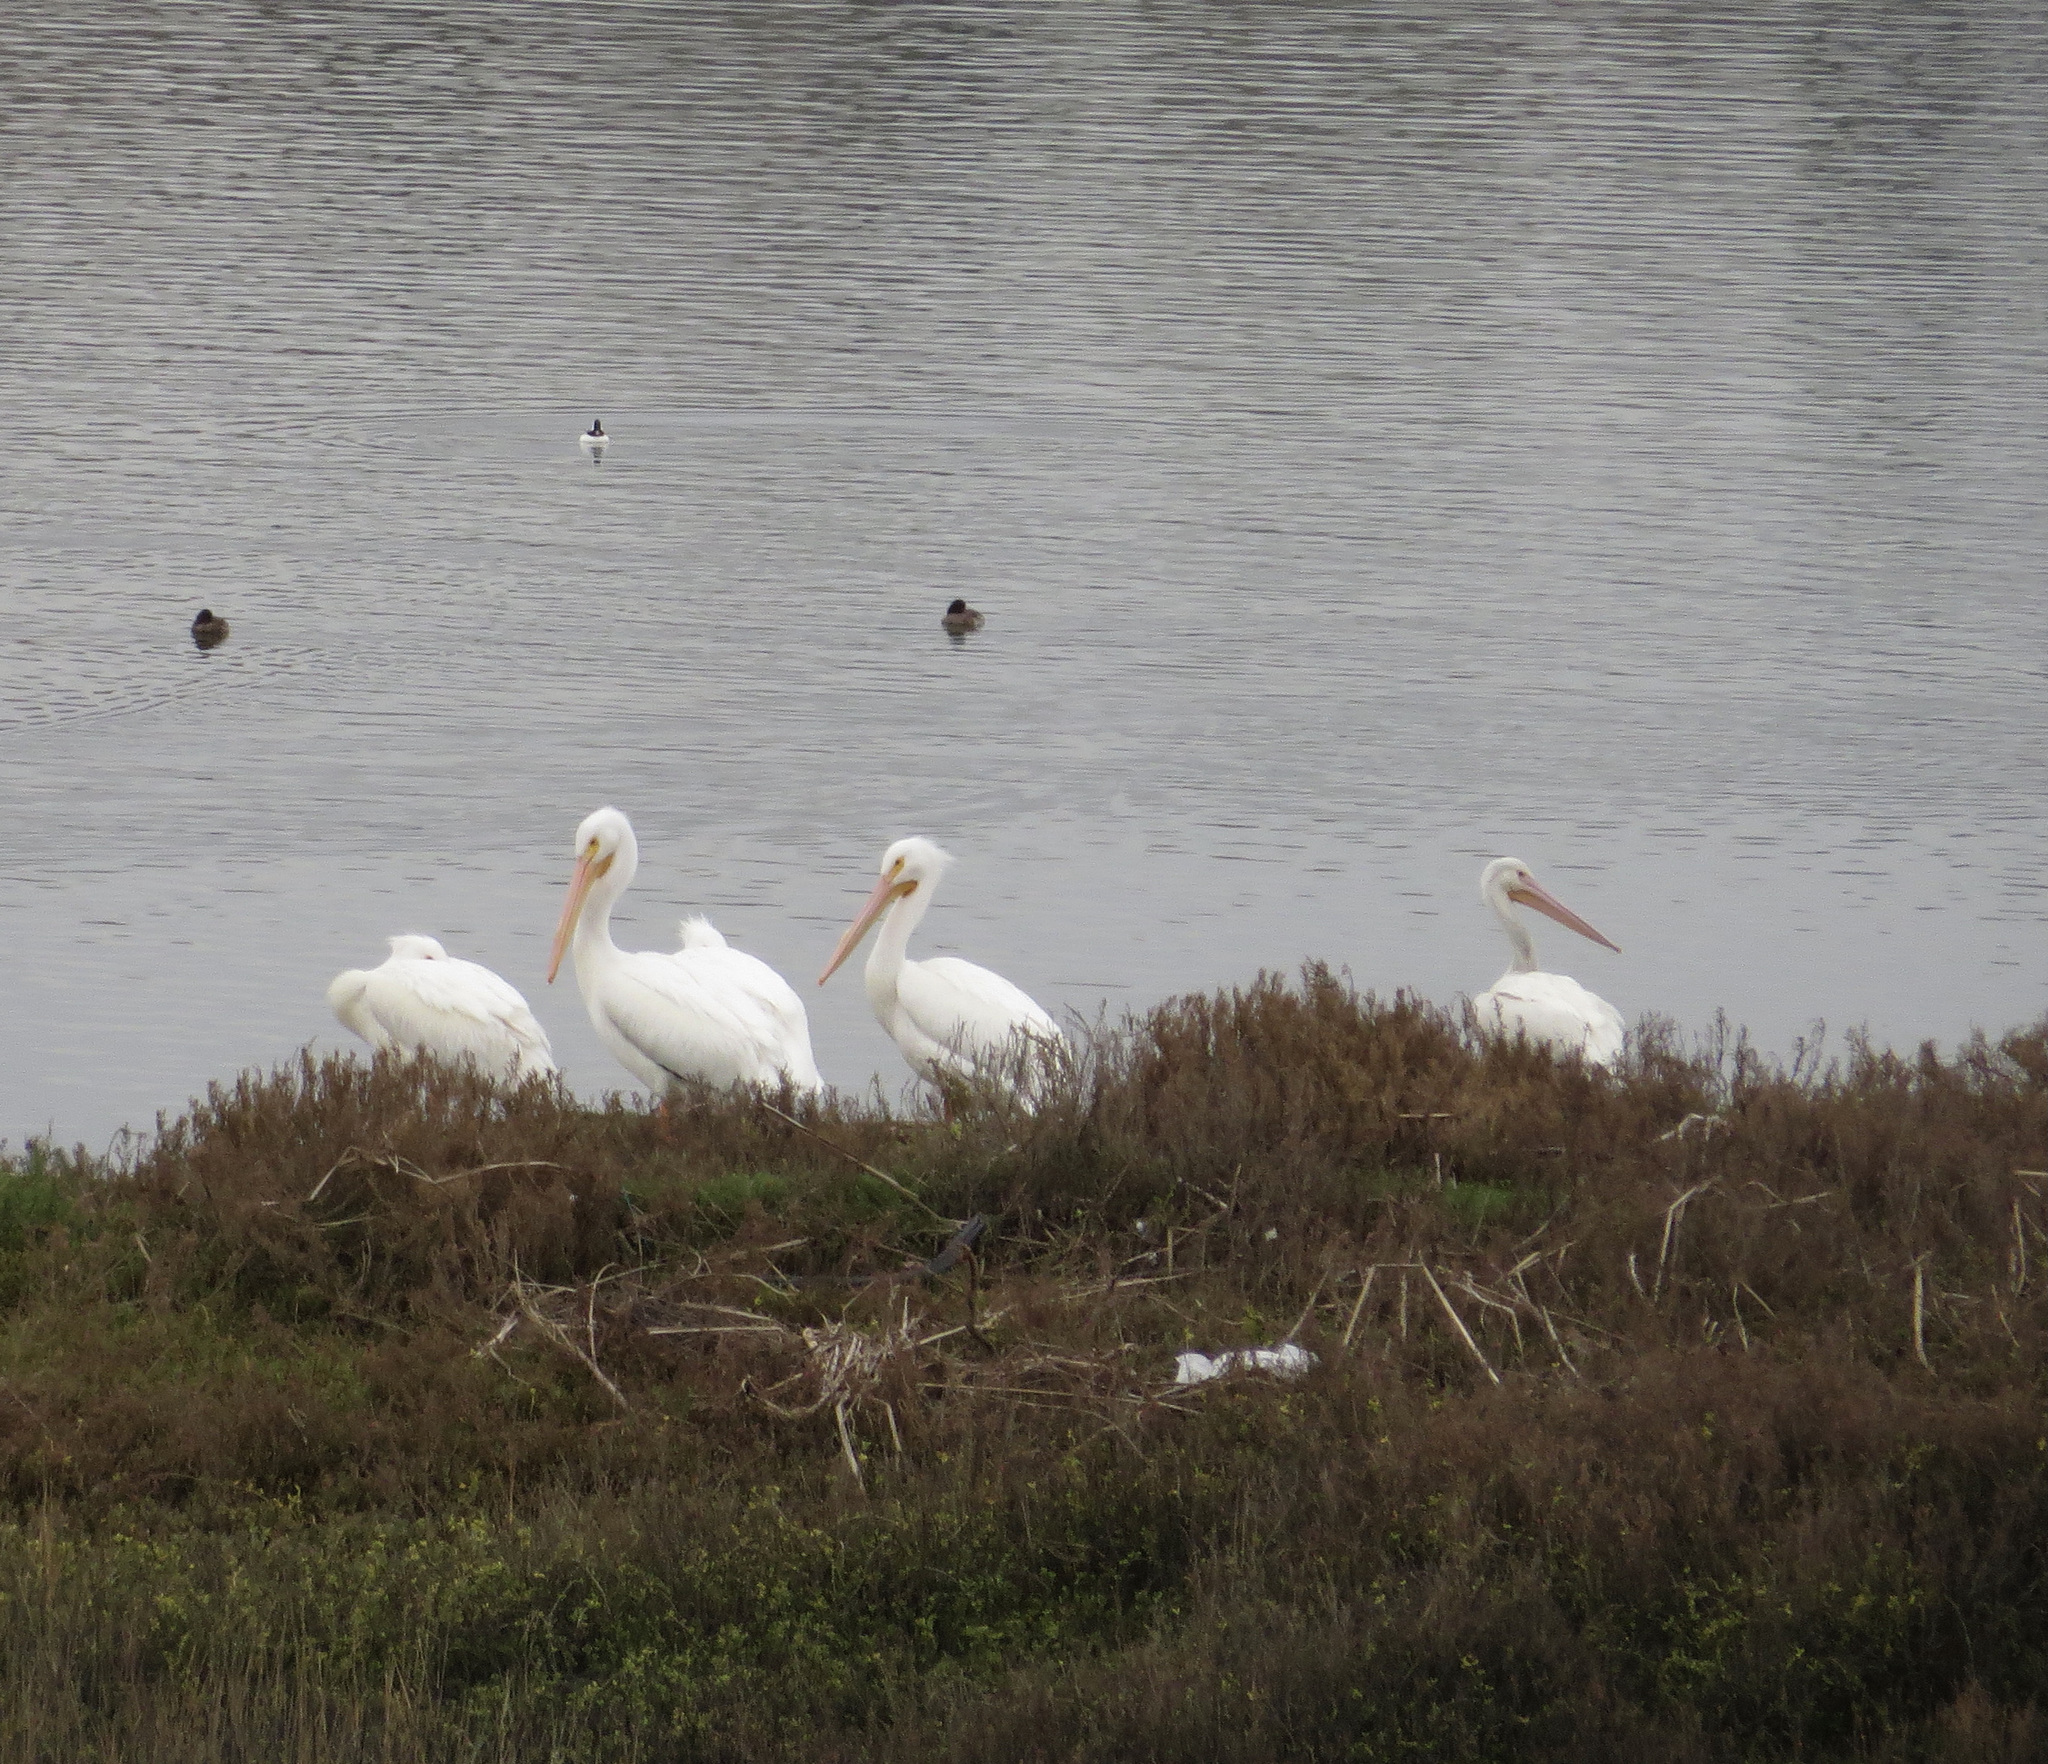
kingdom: Animalia
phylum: Chordata
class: Aves
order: Pelecaniformes
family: Pelecanidae
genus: Pelecanus
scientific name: Pelecanus erythrorhynchos
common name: American white pelican
